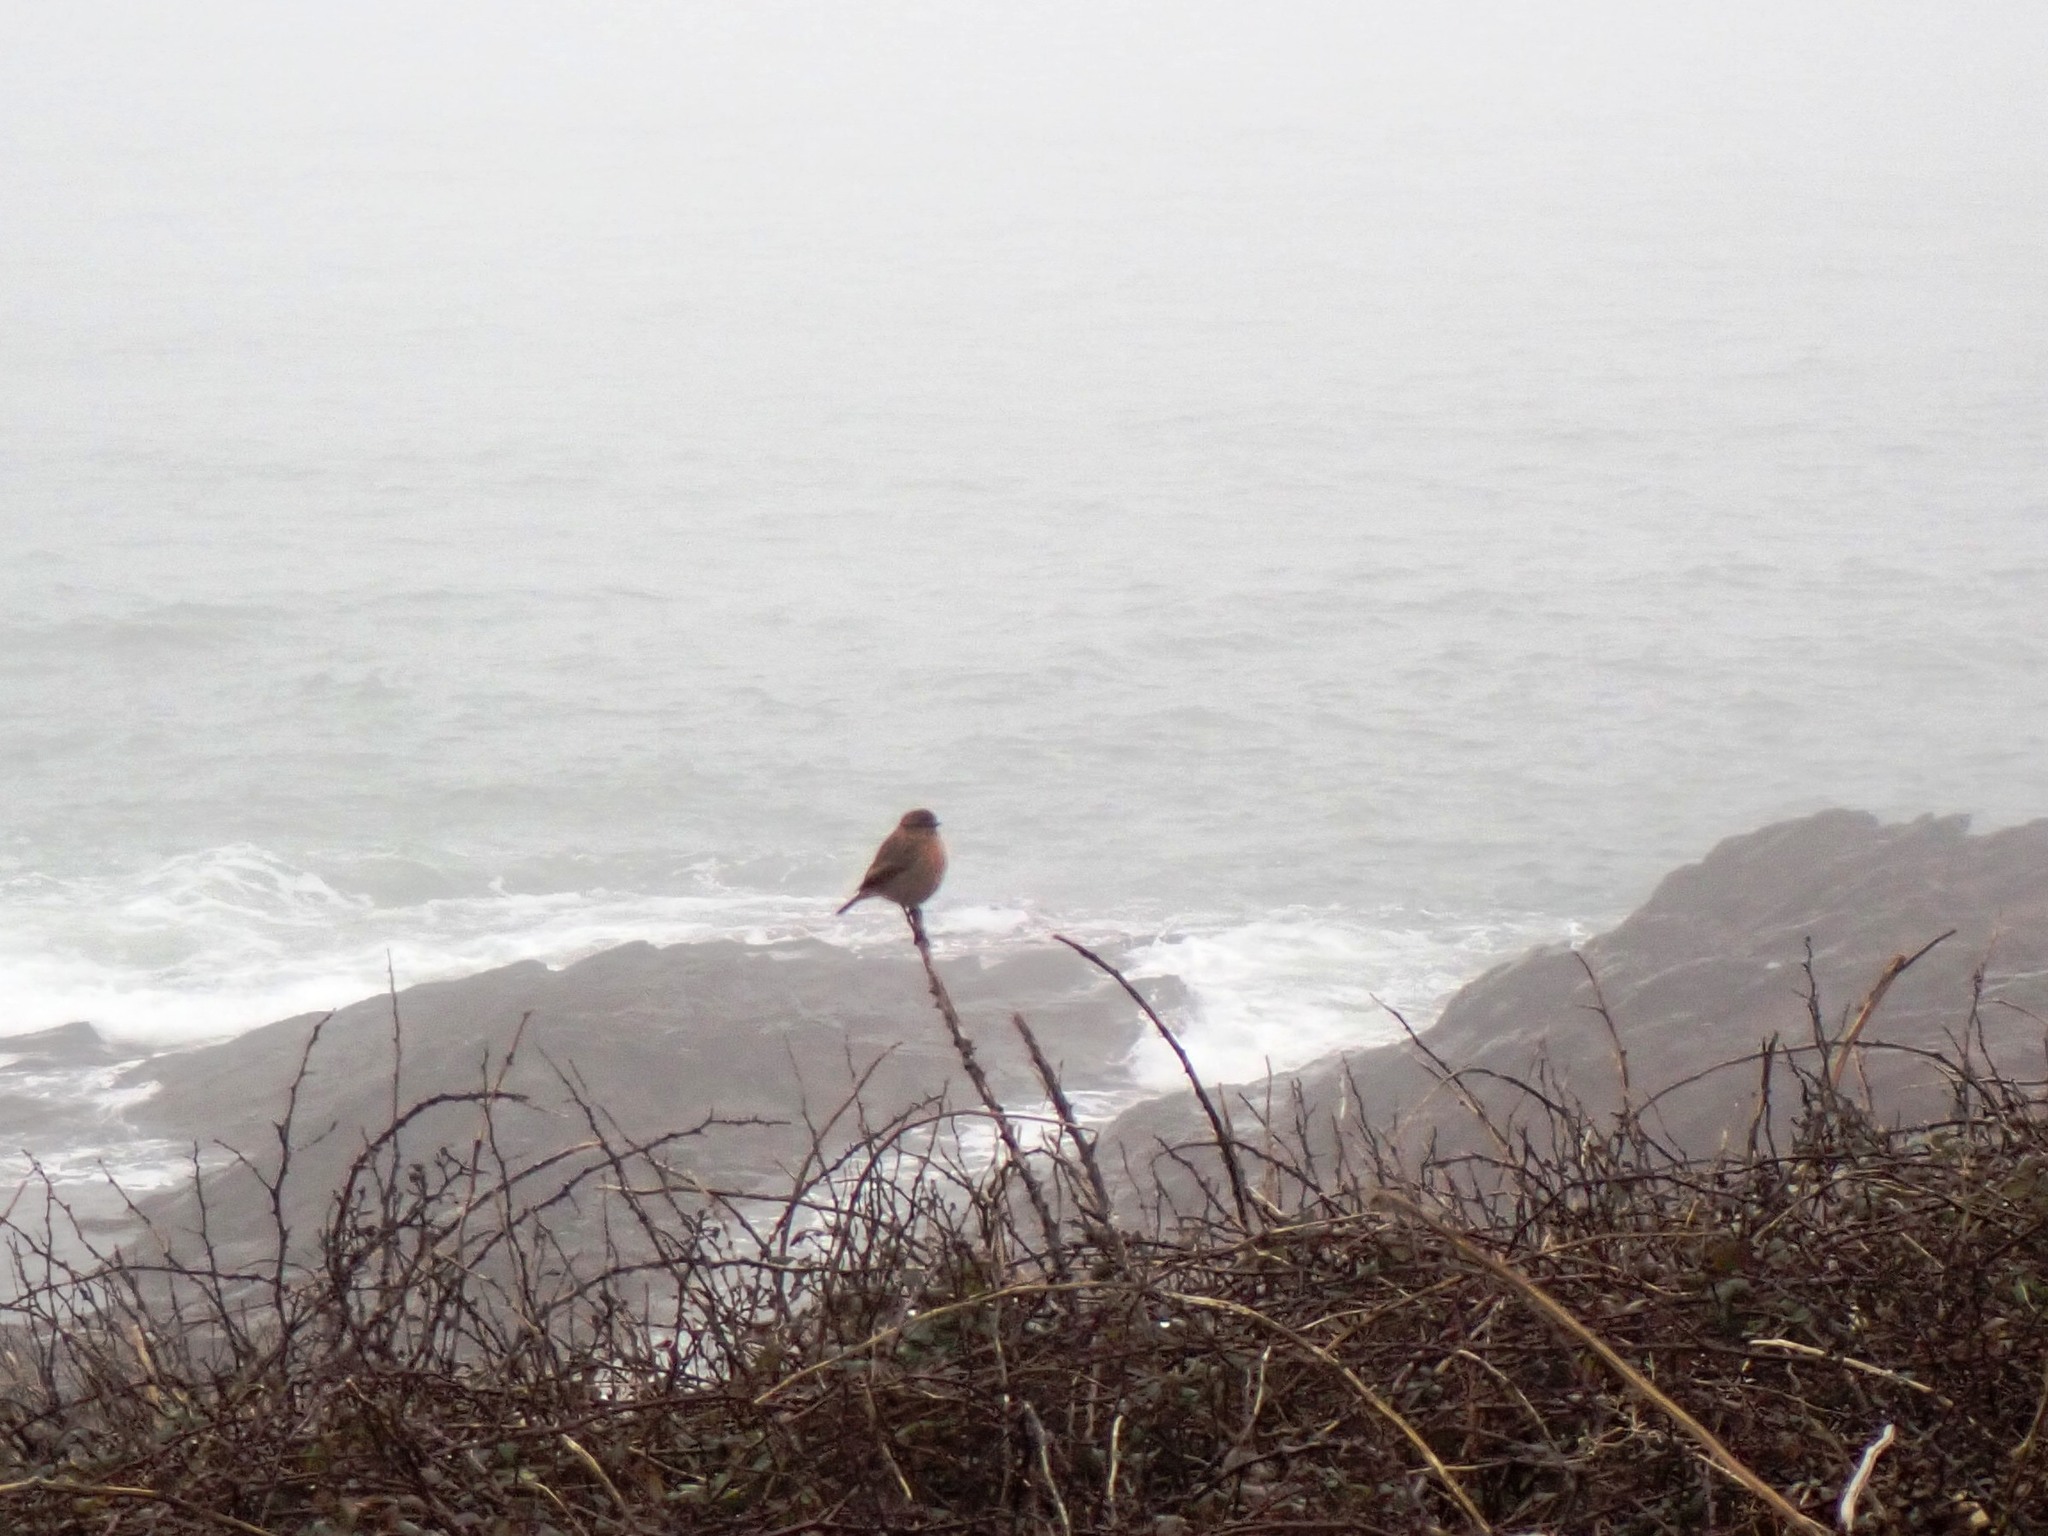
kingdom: Animalia
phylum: Chordata
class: Aves
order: Passeriformes
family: Muscicapidae
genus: Saxicola
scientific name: Saxicola rubicola
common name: European stonechat
